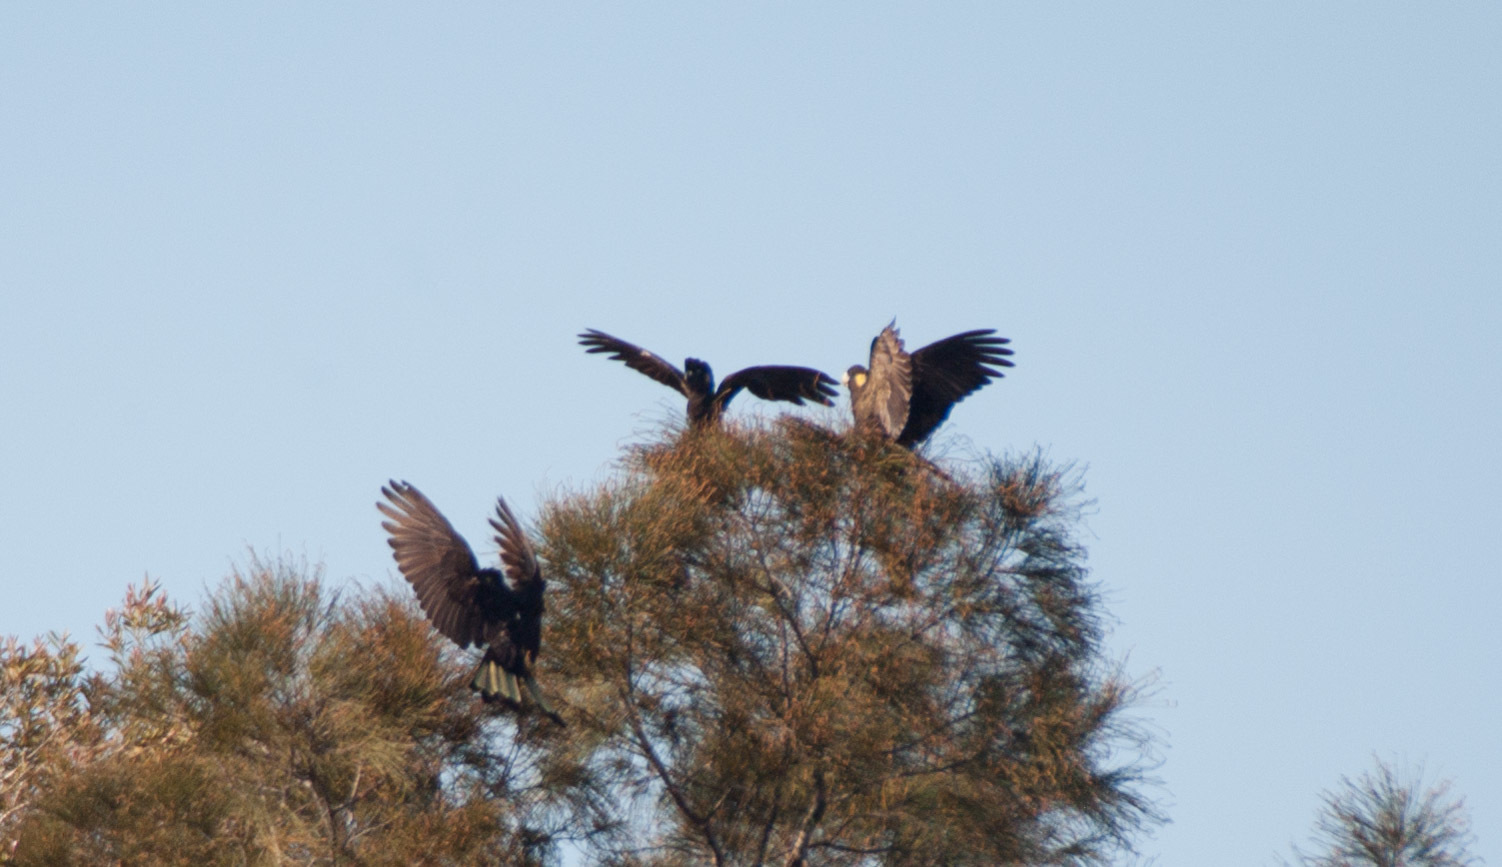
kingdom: Animalia
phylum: Chordata
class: Aves
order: Psittaciformes
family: Cacatuidae
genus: Zanda
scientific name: Zanda funerea
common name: Yellow-tailed black-cockatoo
